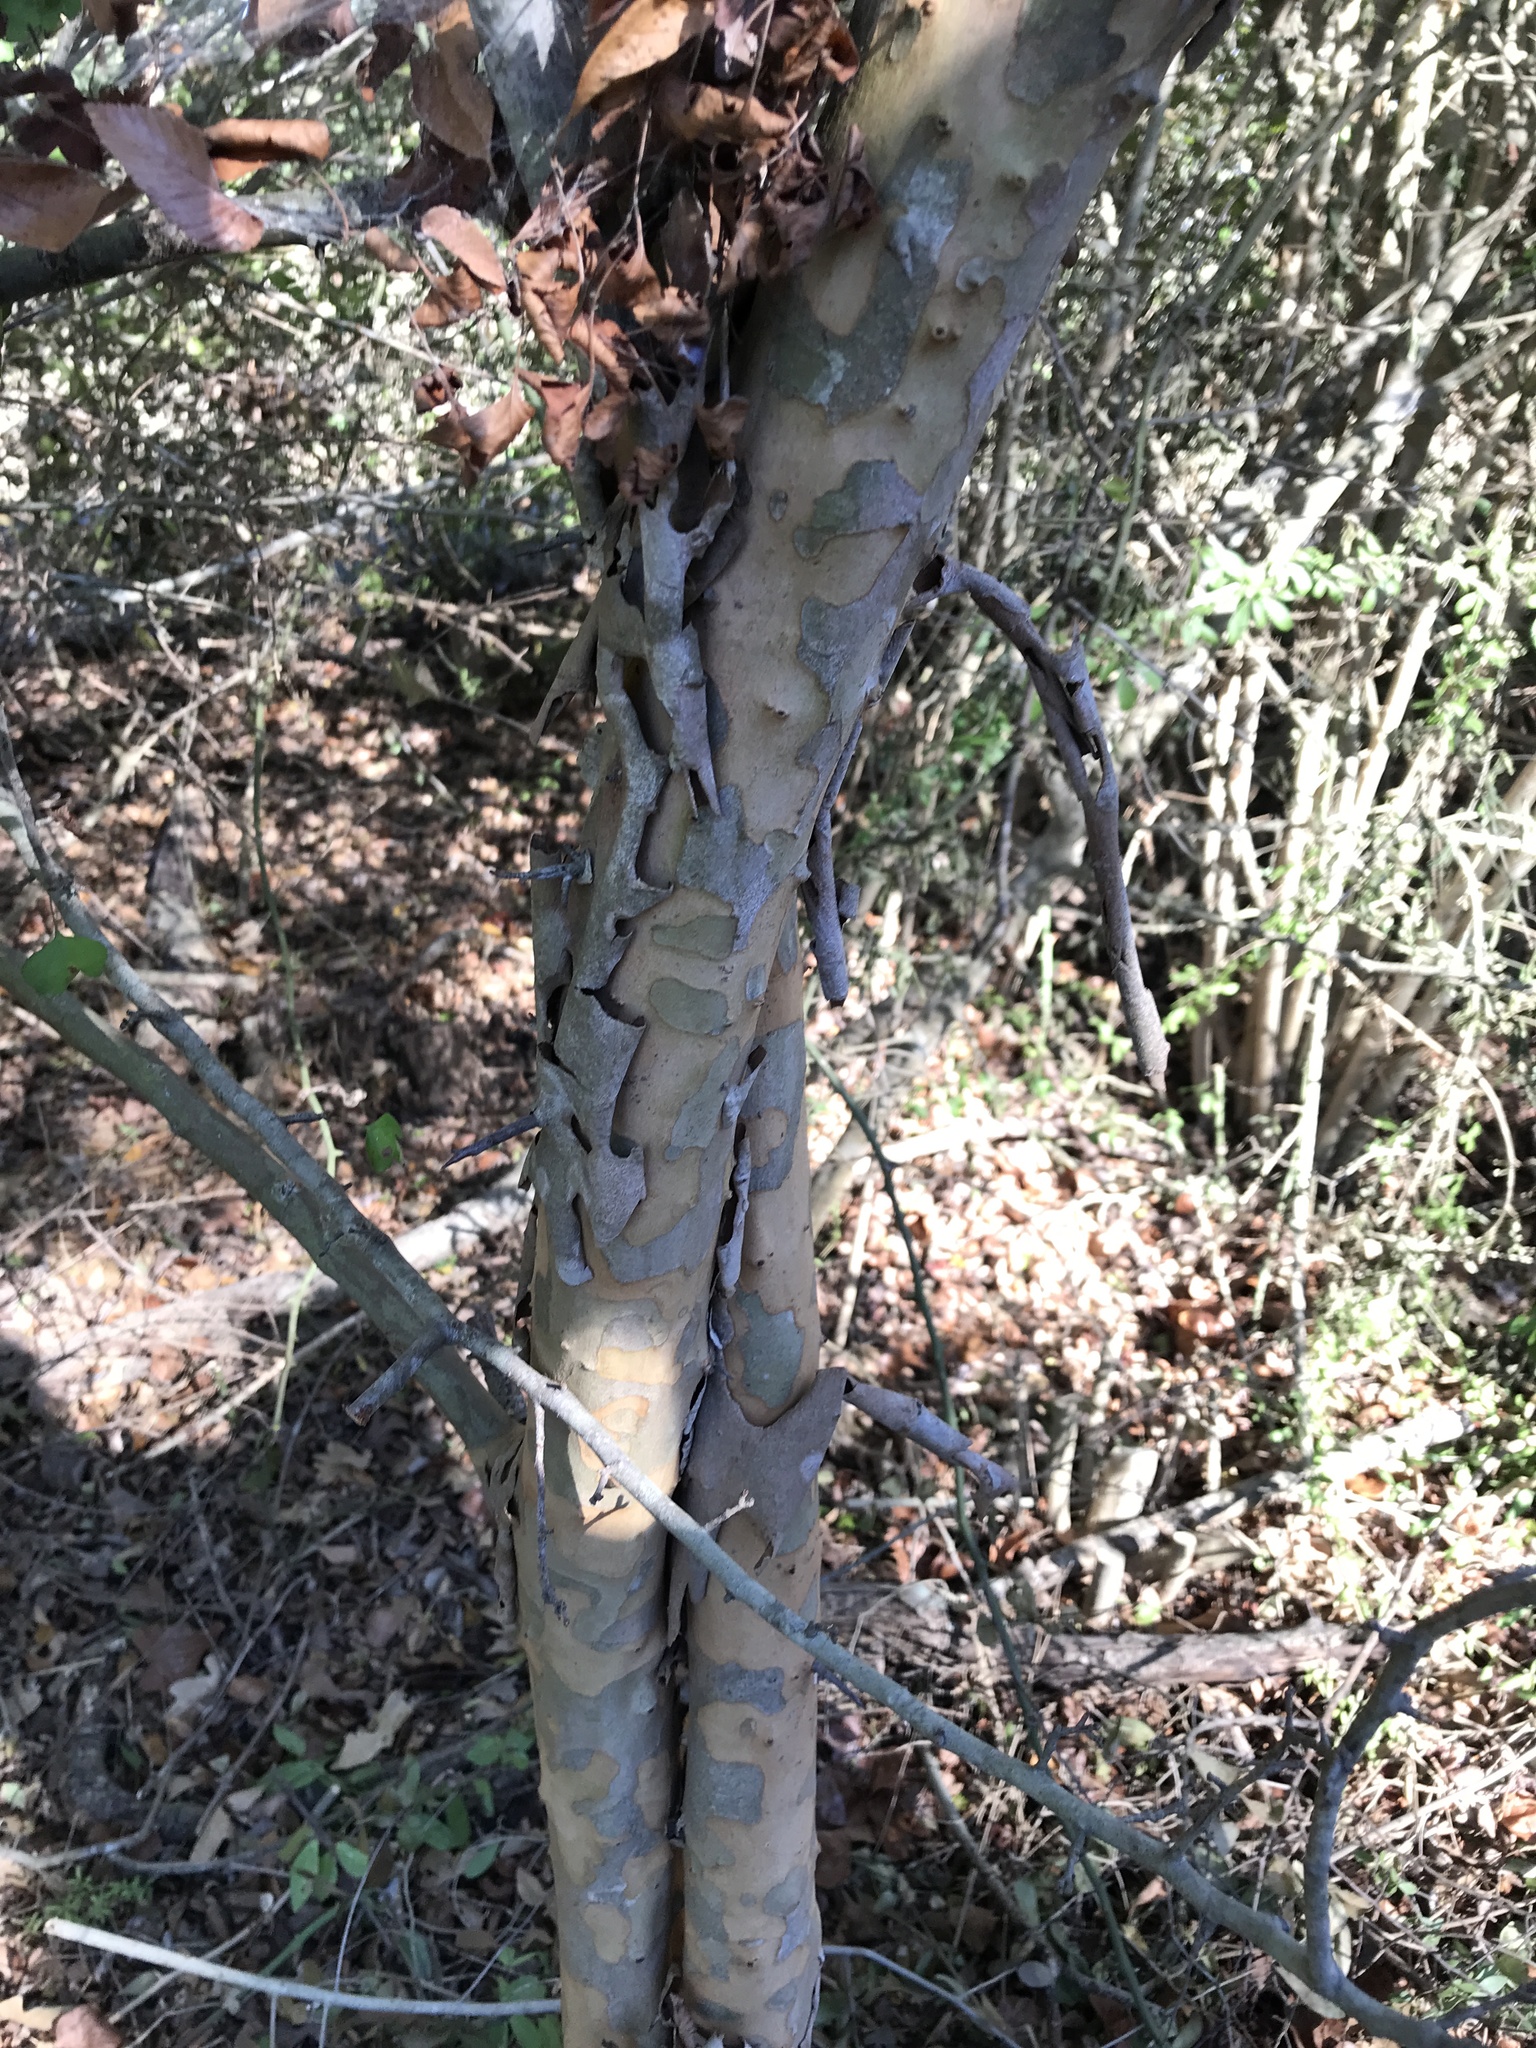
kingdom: Plantae
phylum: Tracheophyta
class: Magnoliopsida
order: Rosales
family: Rosaceae
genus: Crataegus
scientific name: Crataegus marshallii
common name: Parsley-hawthorn
